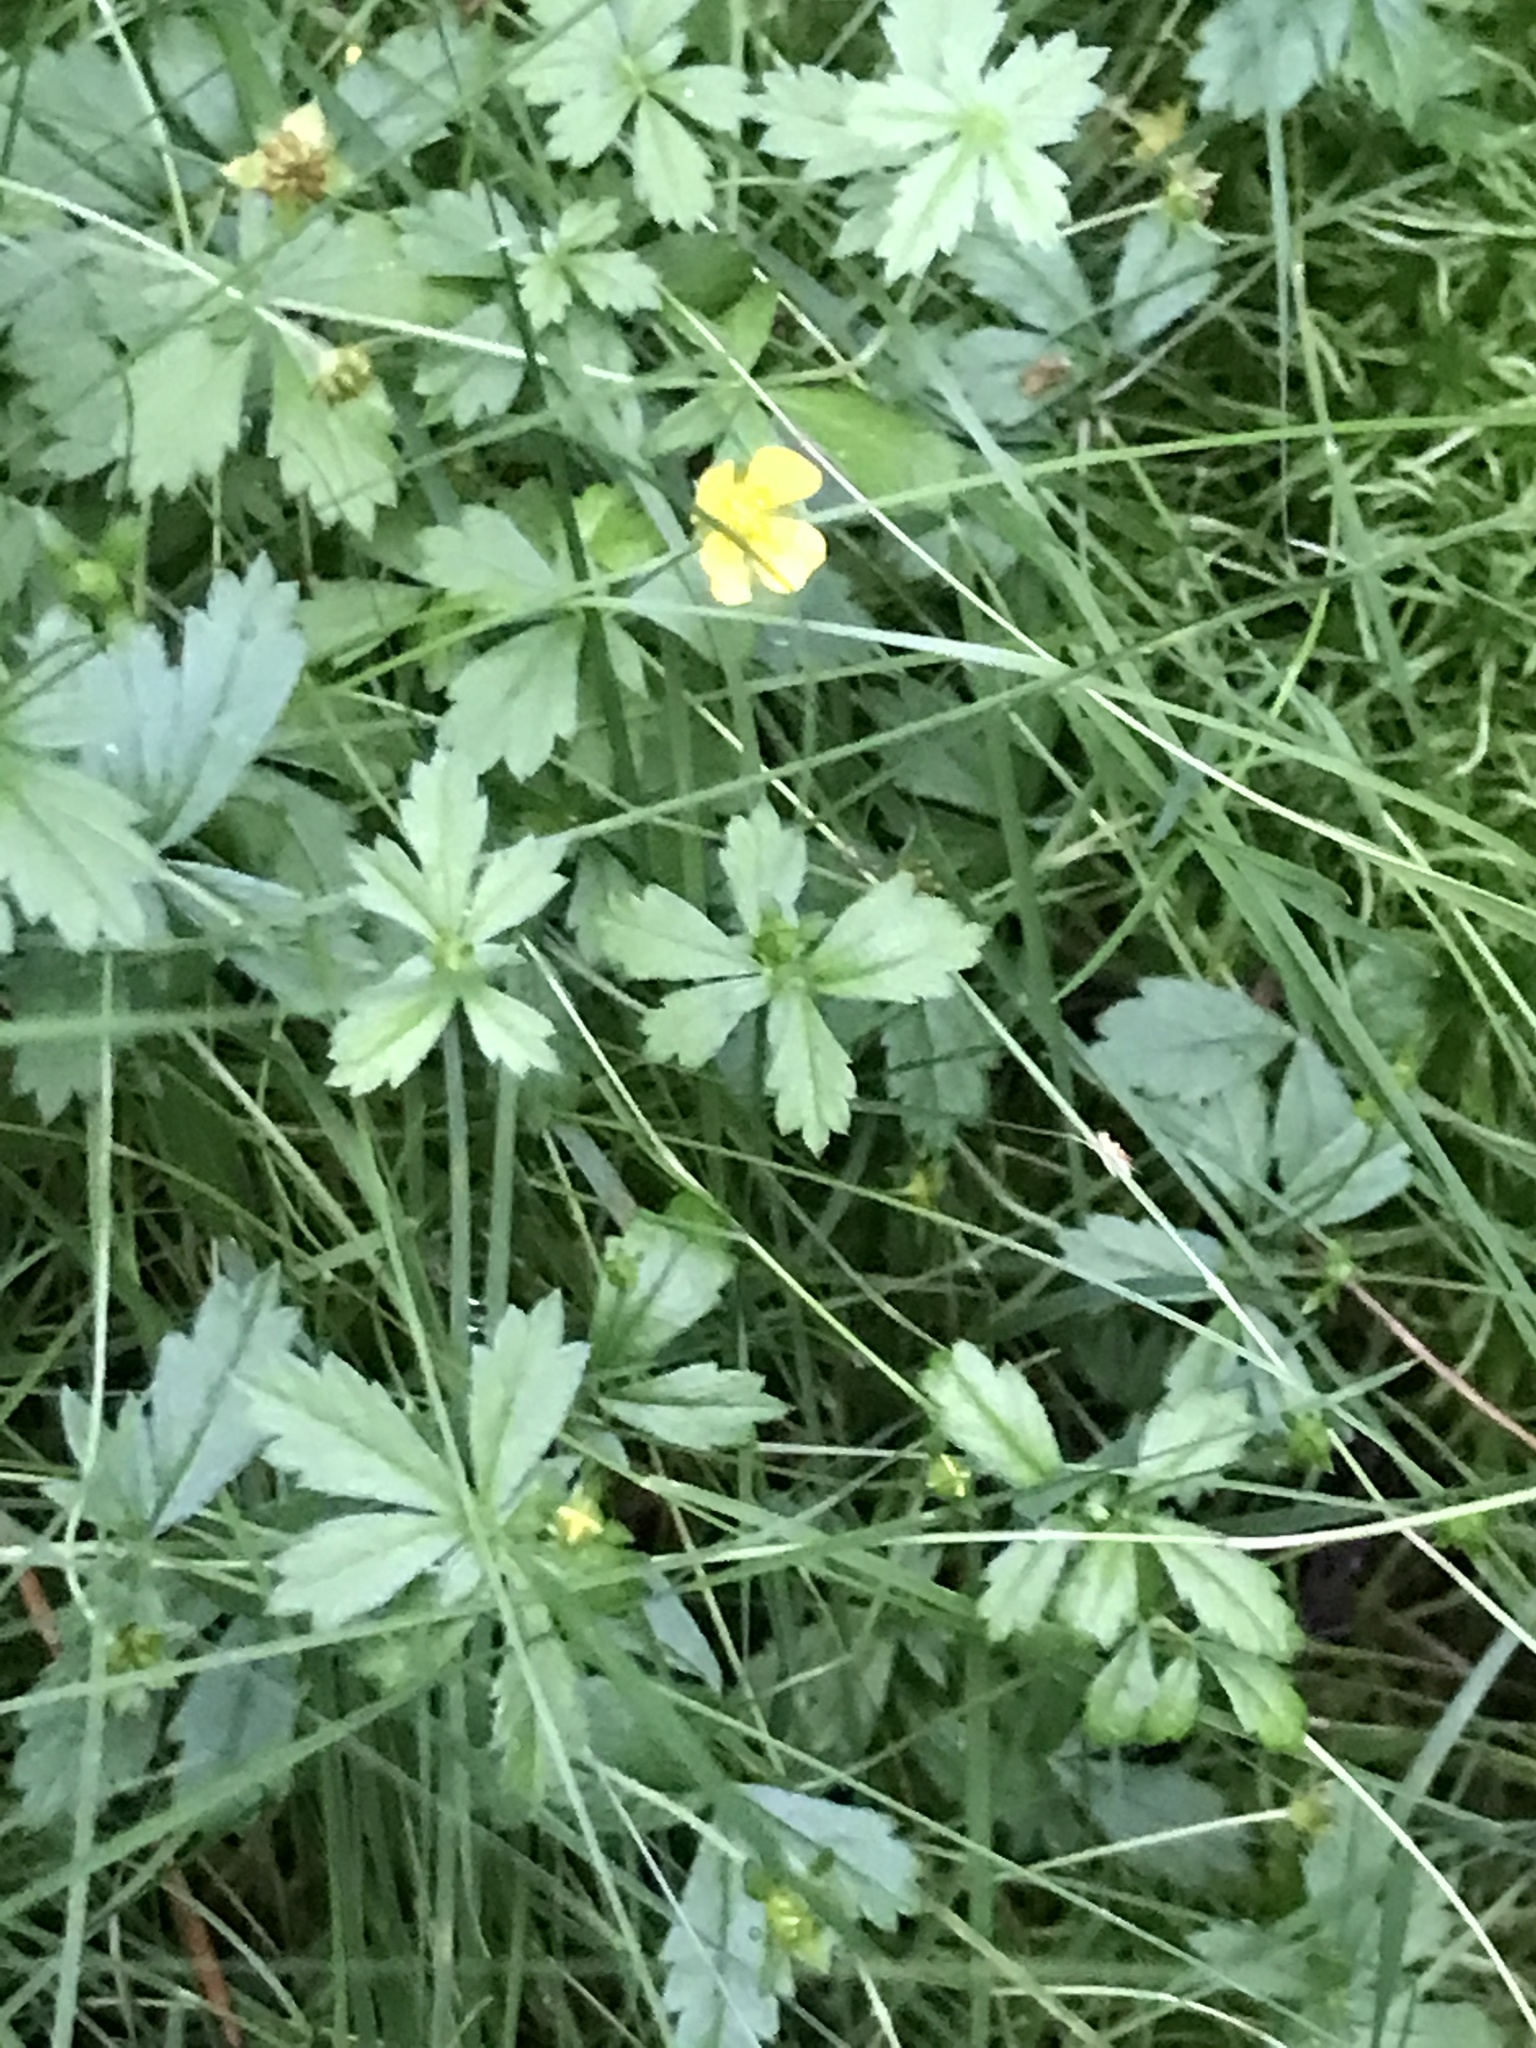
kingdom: Plantae
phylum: Tracheophyta
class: Magnoliopsida
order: Rosales
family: Rosaceae
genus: Potentilla
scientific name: Potentilla erecta
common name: Tormentil
